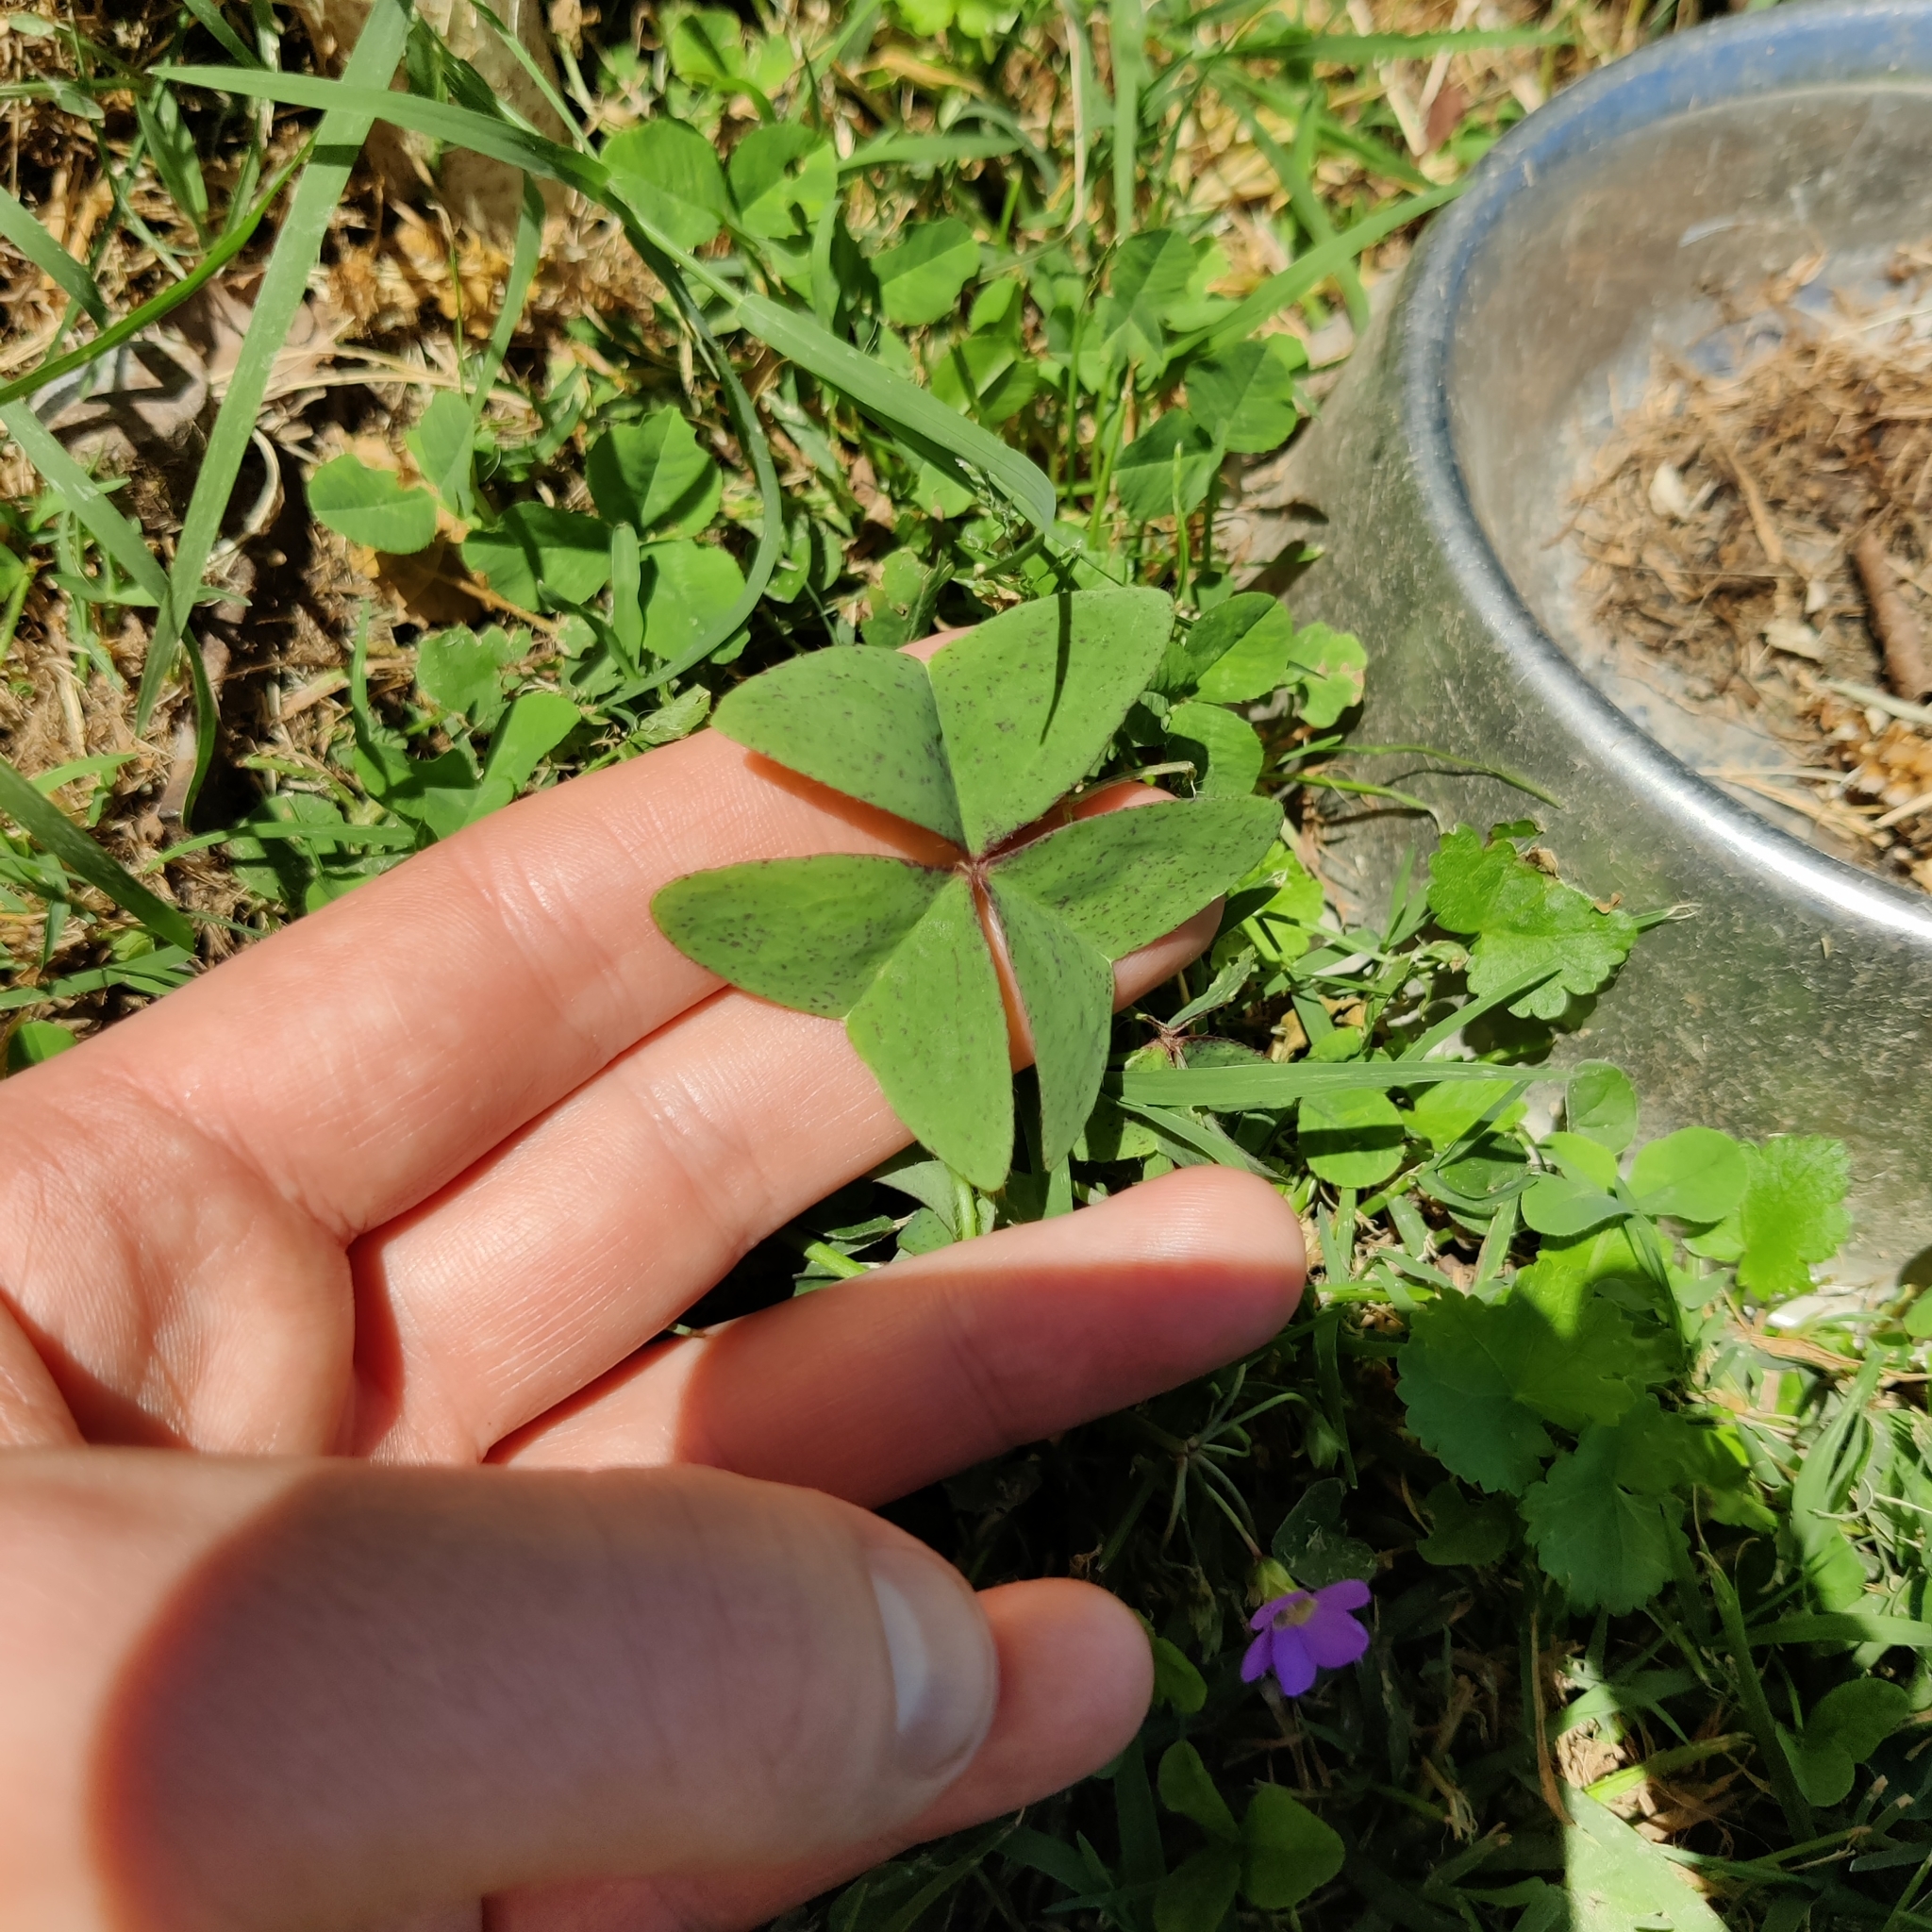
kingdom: Plantae
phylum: Tracheophyta
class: Magnoliopsida
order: Oxalidales
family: Oxalidaceae
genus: Oxalis
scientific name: Oxalis latifolia
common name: Garden pink-sorrel
